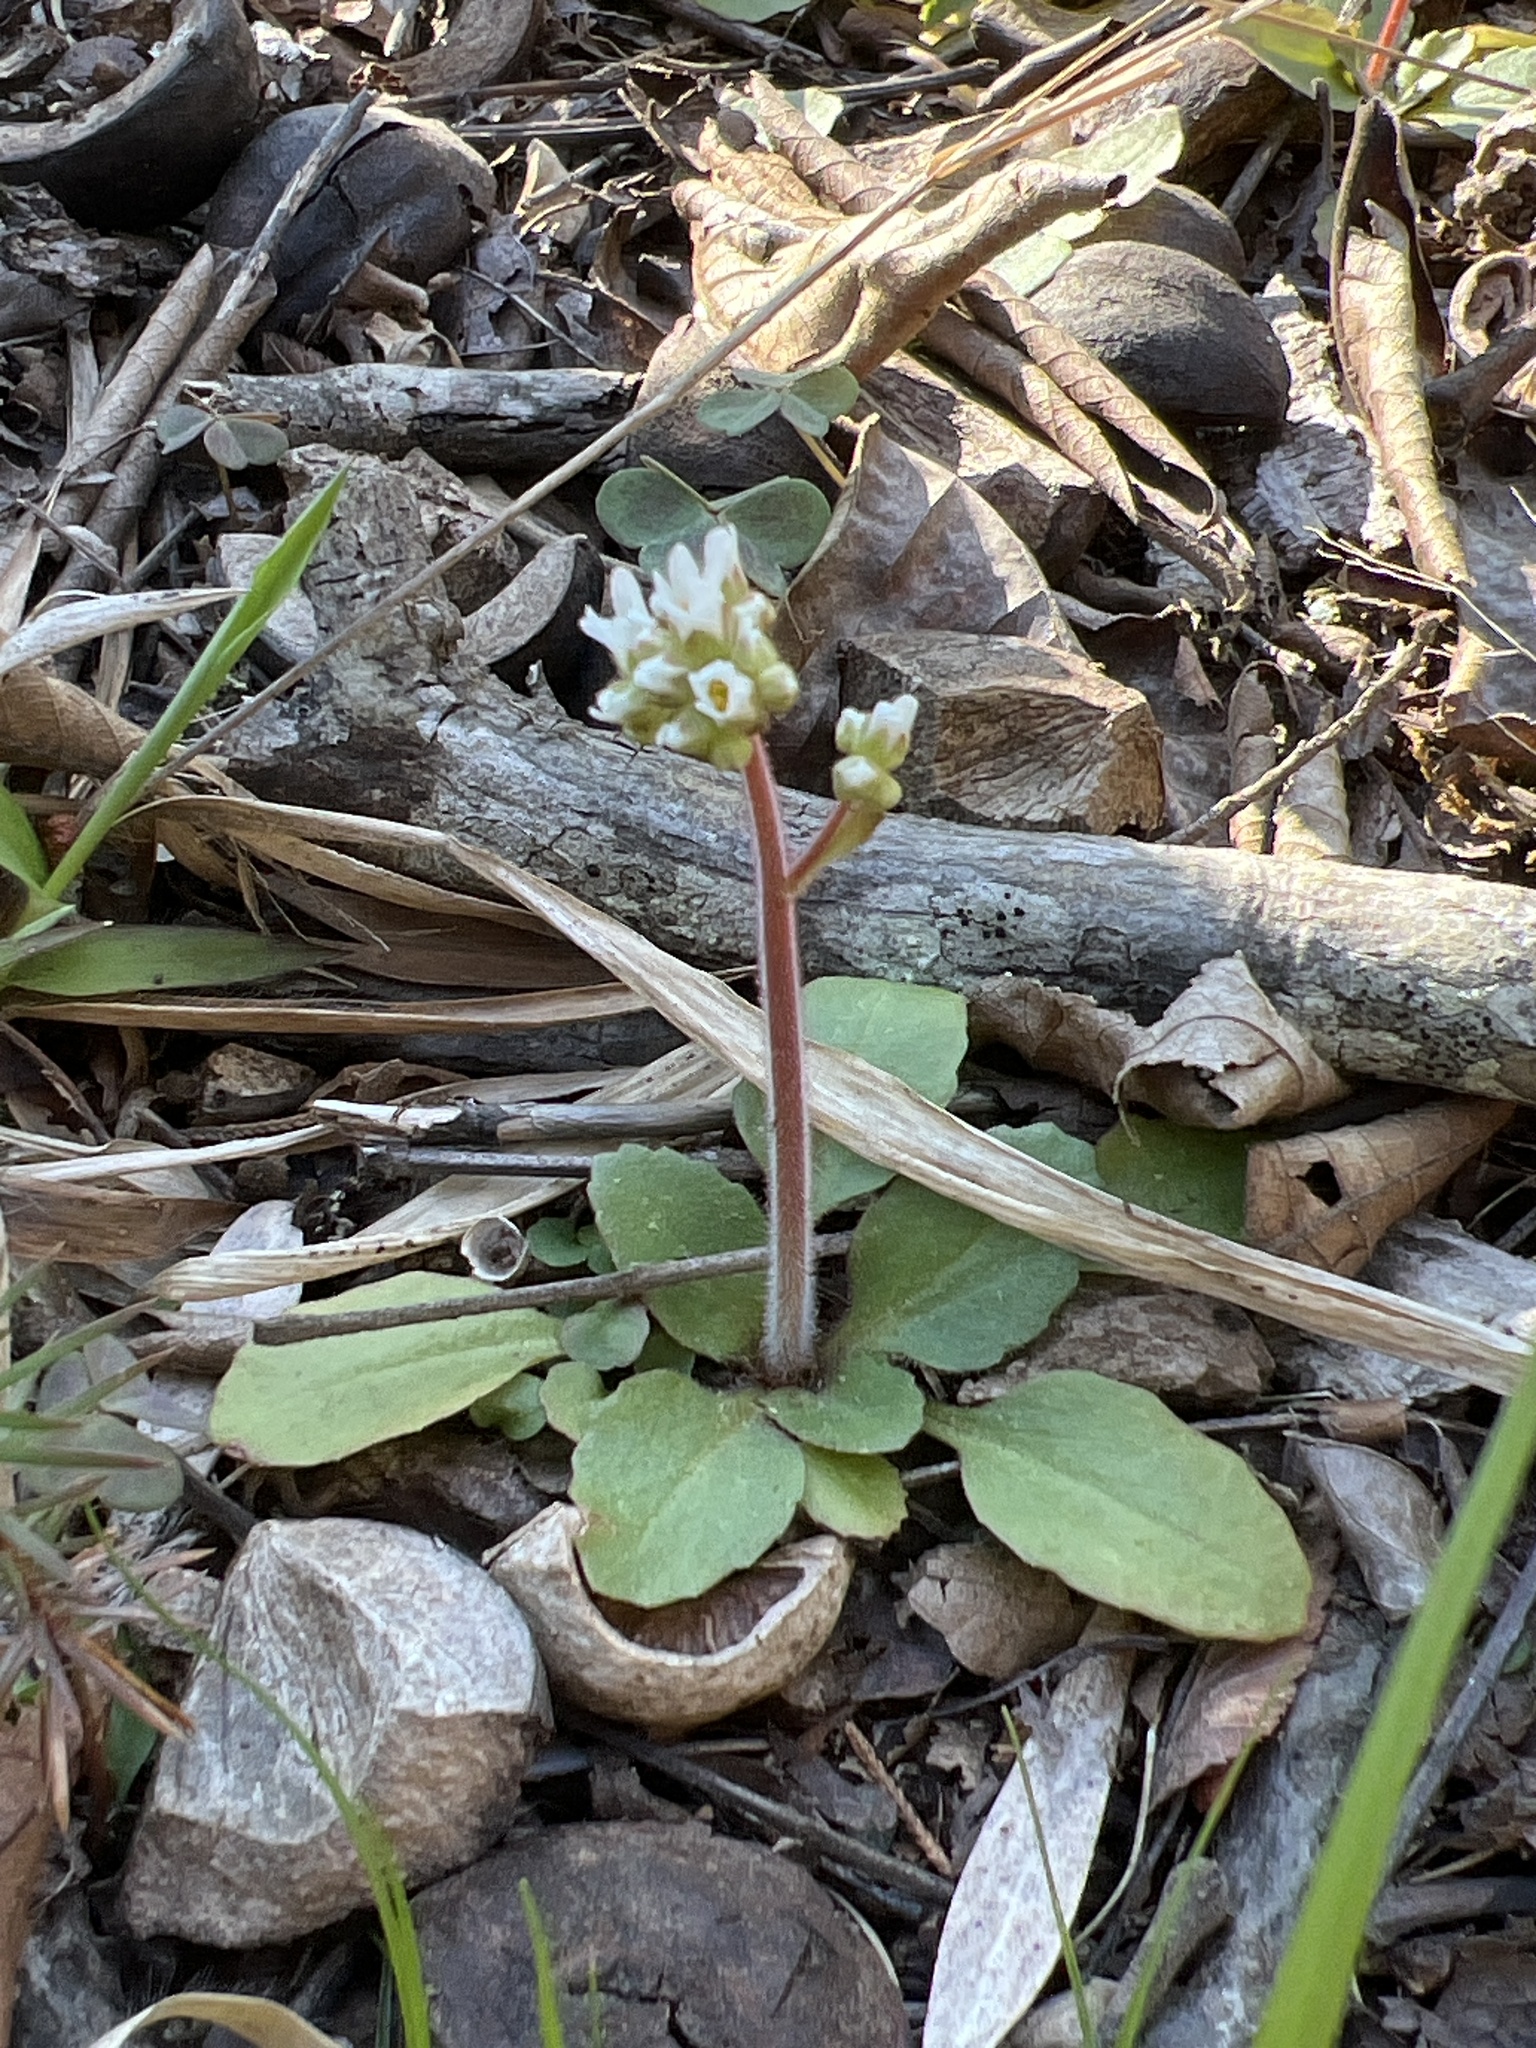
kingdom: Plantae
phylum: Tracheophyta
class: Magnoliopsida
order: Saxifragales
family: Saxifragaceae
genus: Micranthes
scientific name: Micranthes virginiensis
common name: Early saxifrage
